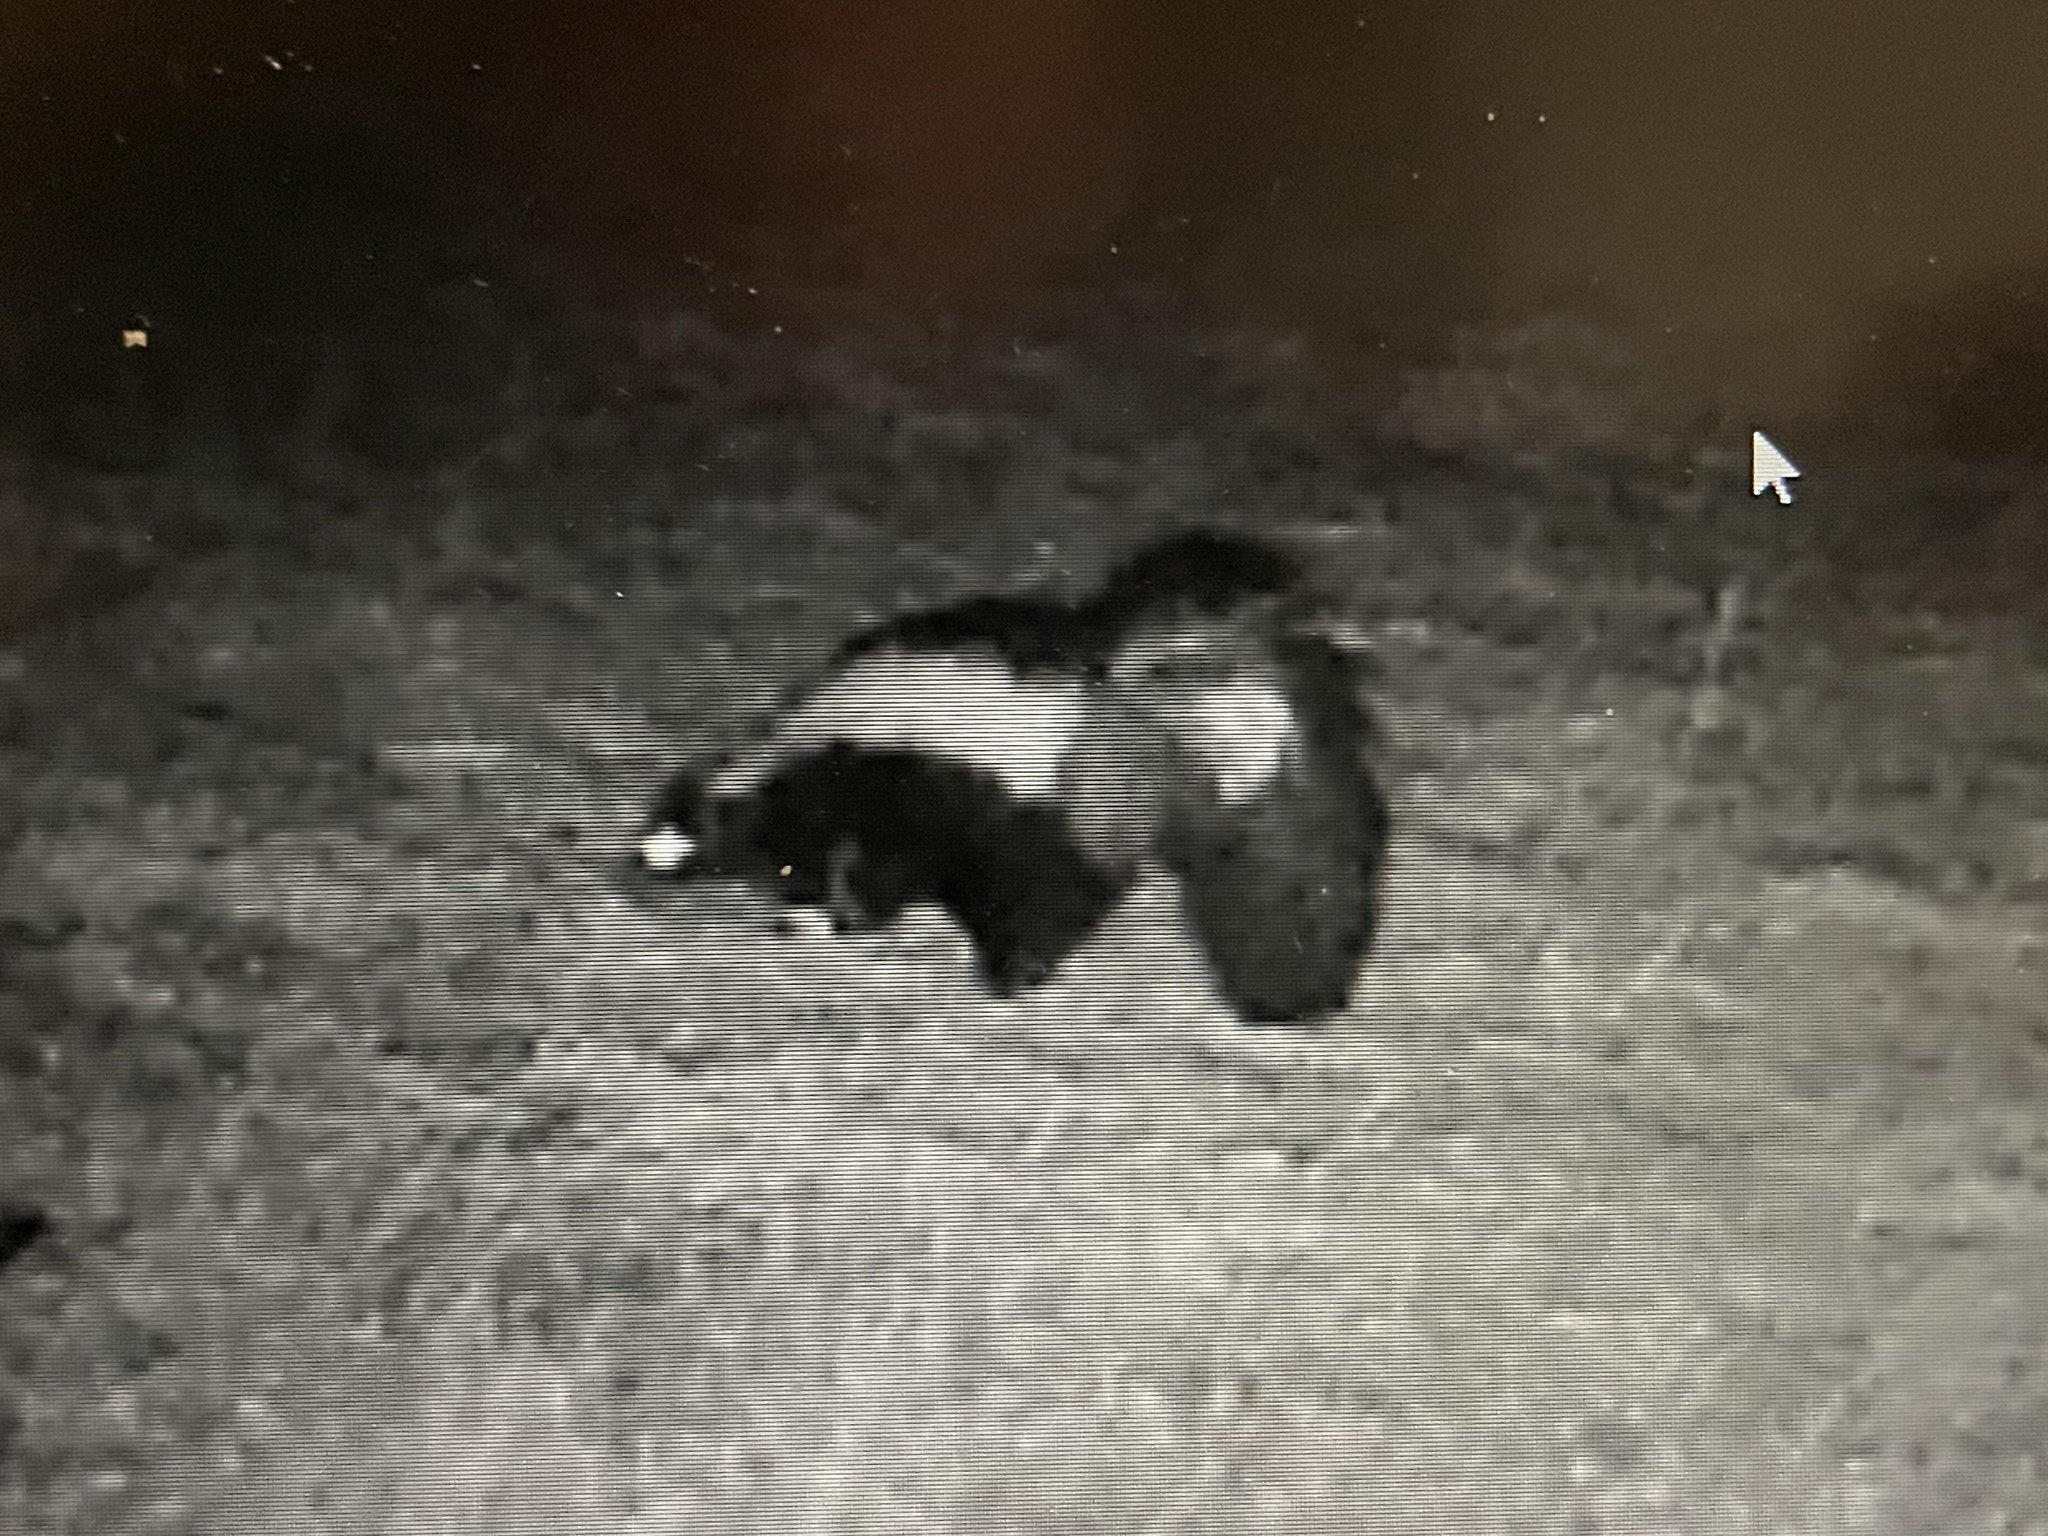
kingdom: Animalia
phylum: Chordata
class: Mammalia
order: Carnivora
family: Mephitidae
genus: Mephitis
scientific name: Mephitis mephitis
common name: Striped skunk
